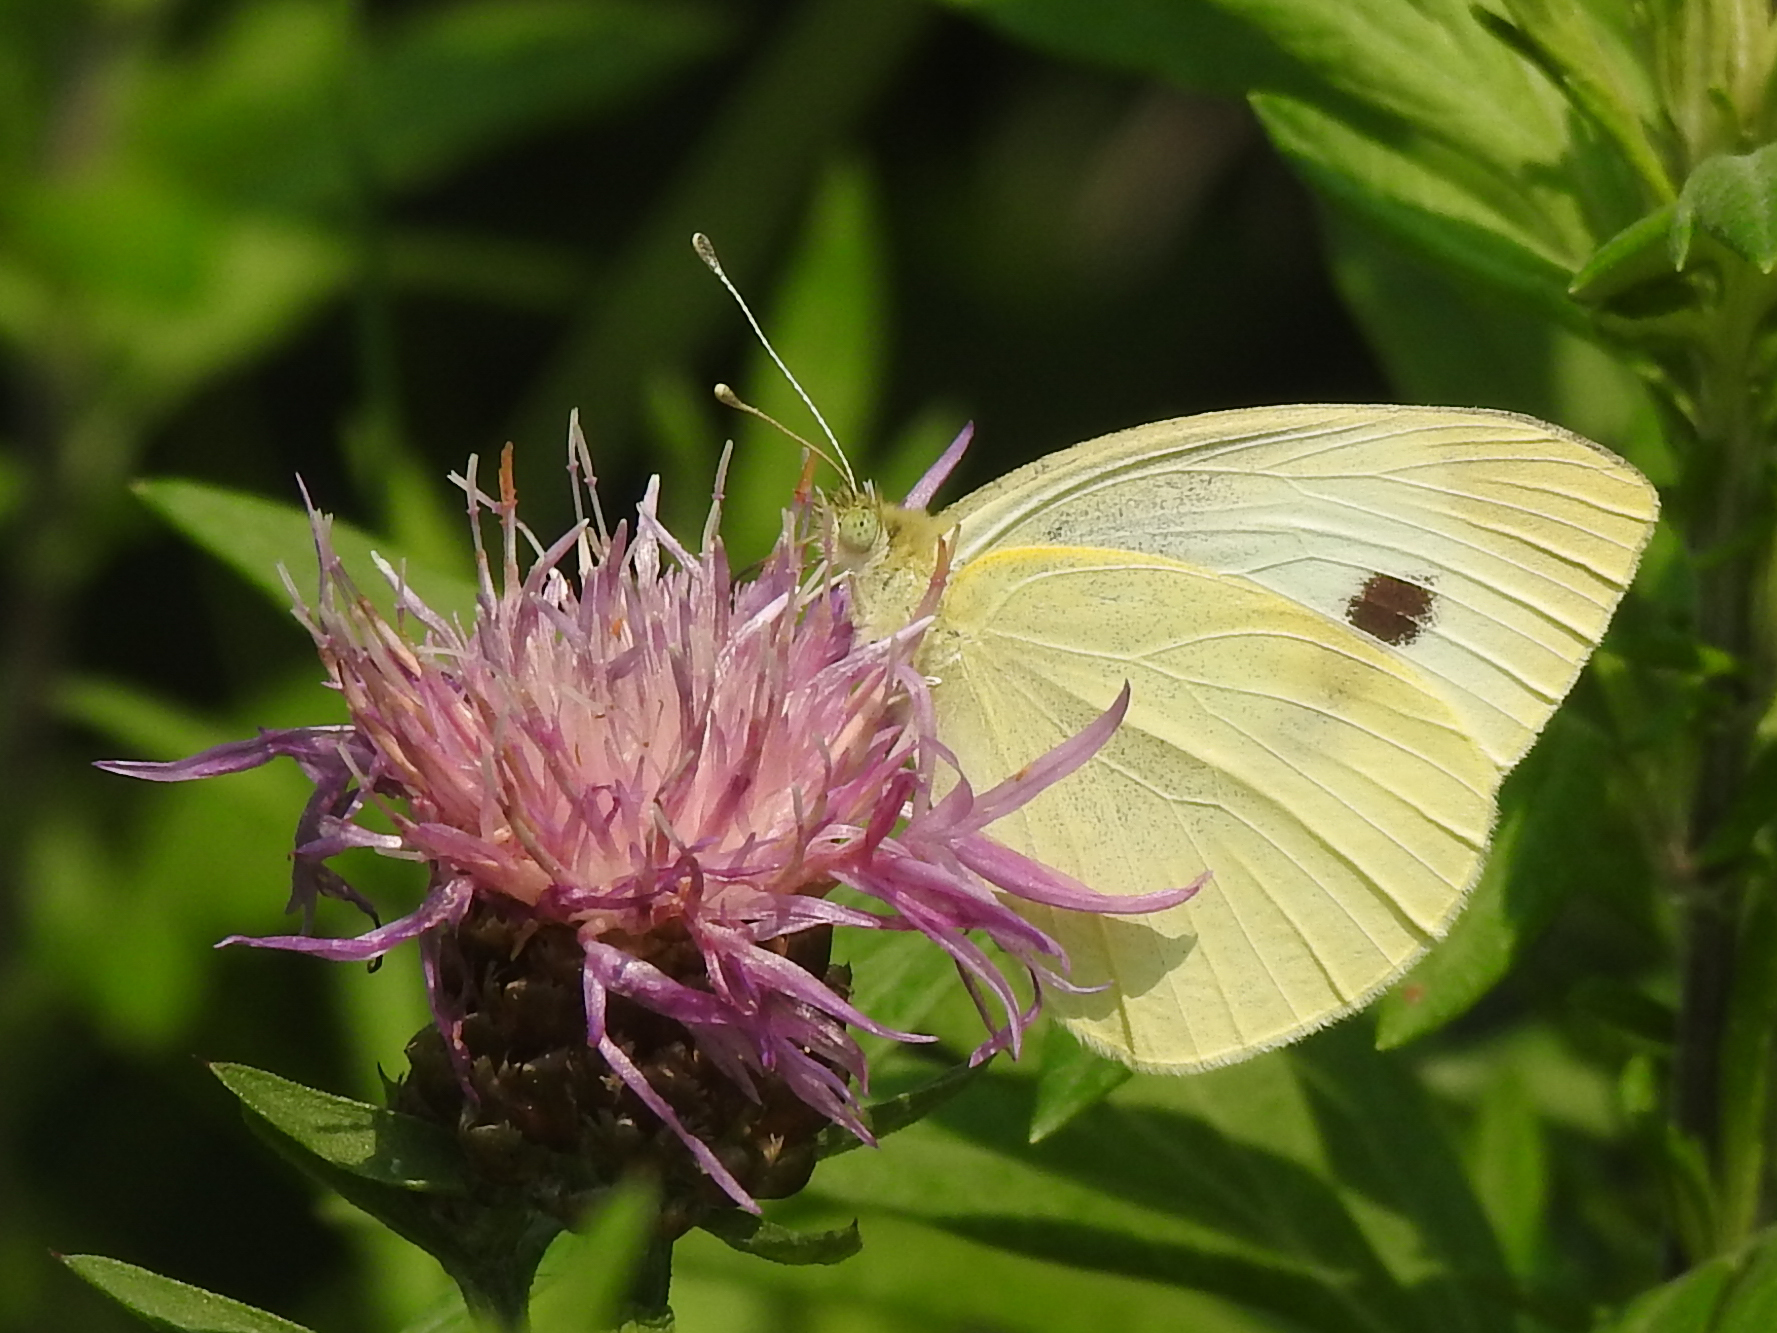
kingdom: Animalia
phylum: Arthropoda
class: Insecta
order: Lepidoptera
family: Pieridae
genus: Pieris
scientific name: Pieris rapae
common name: Small white
